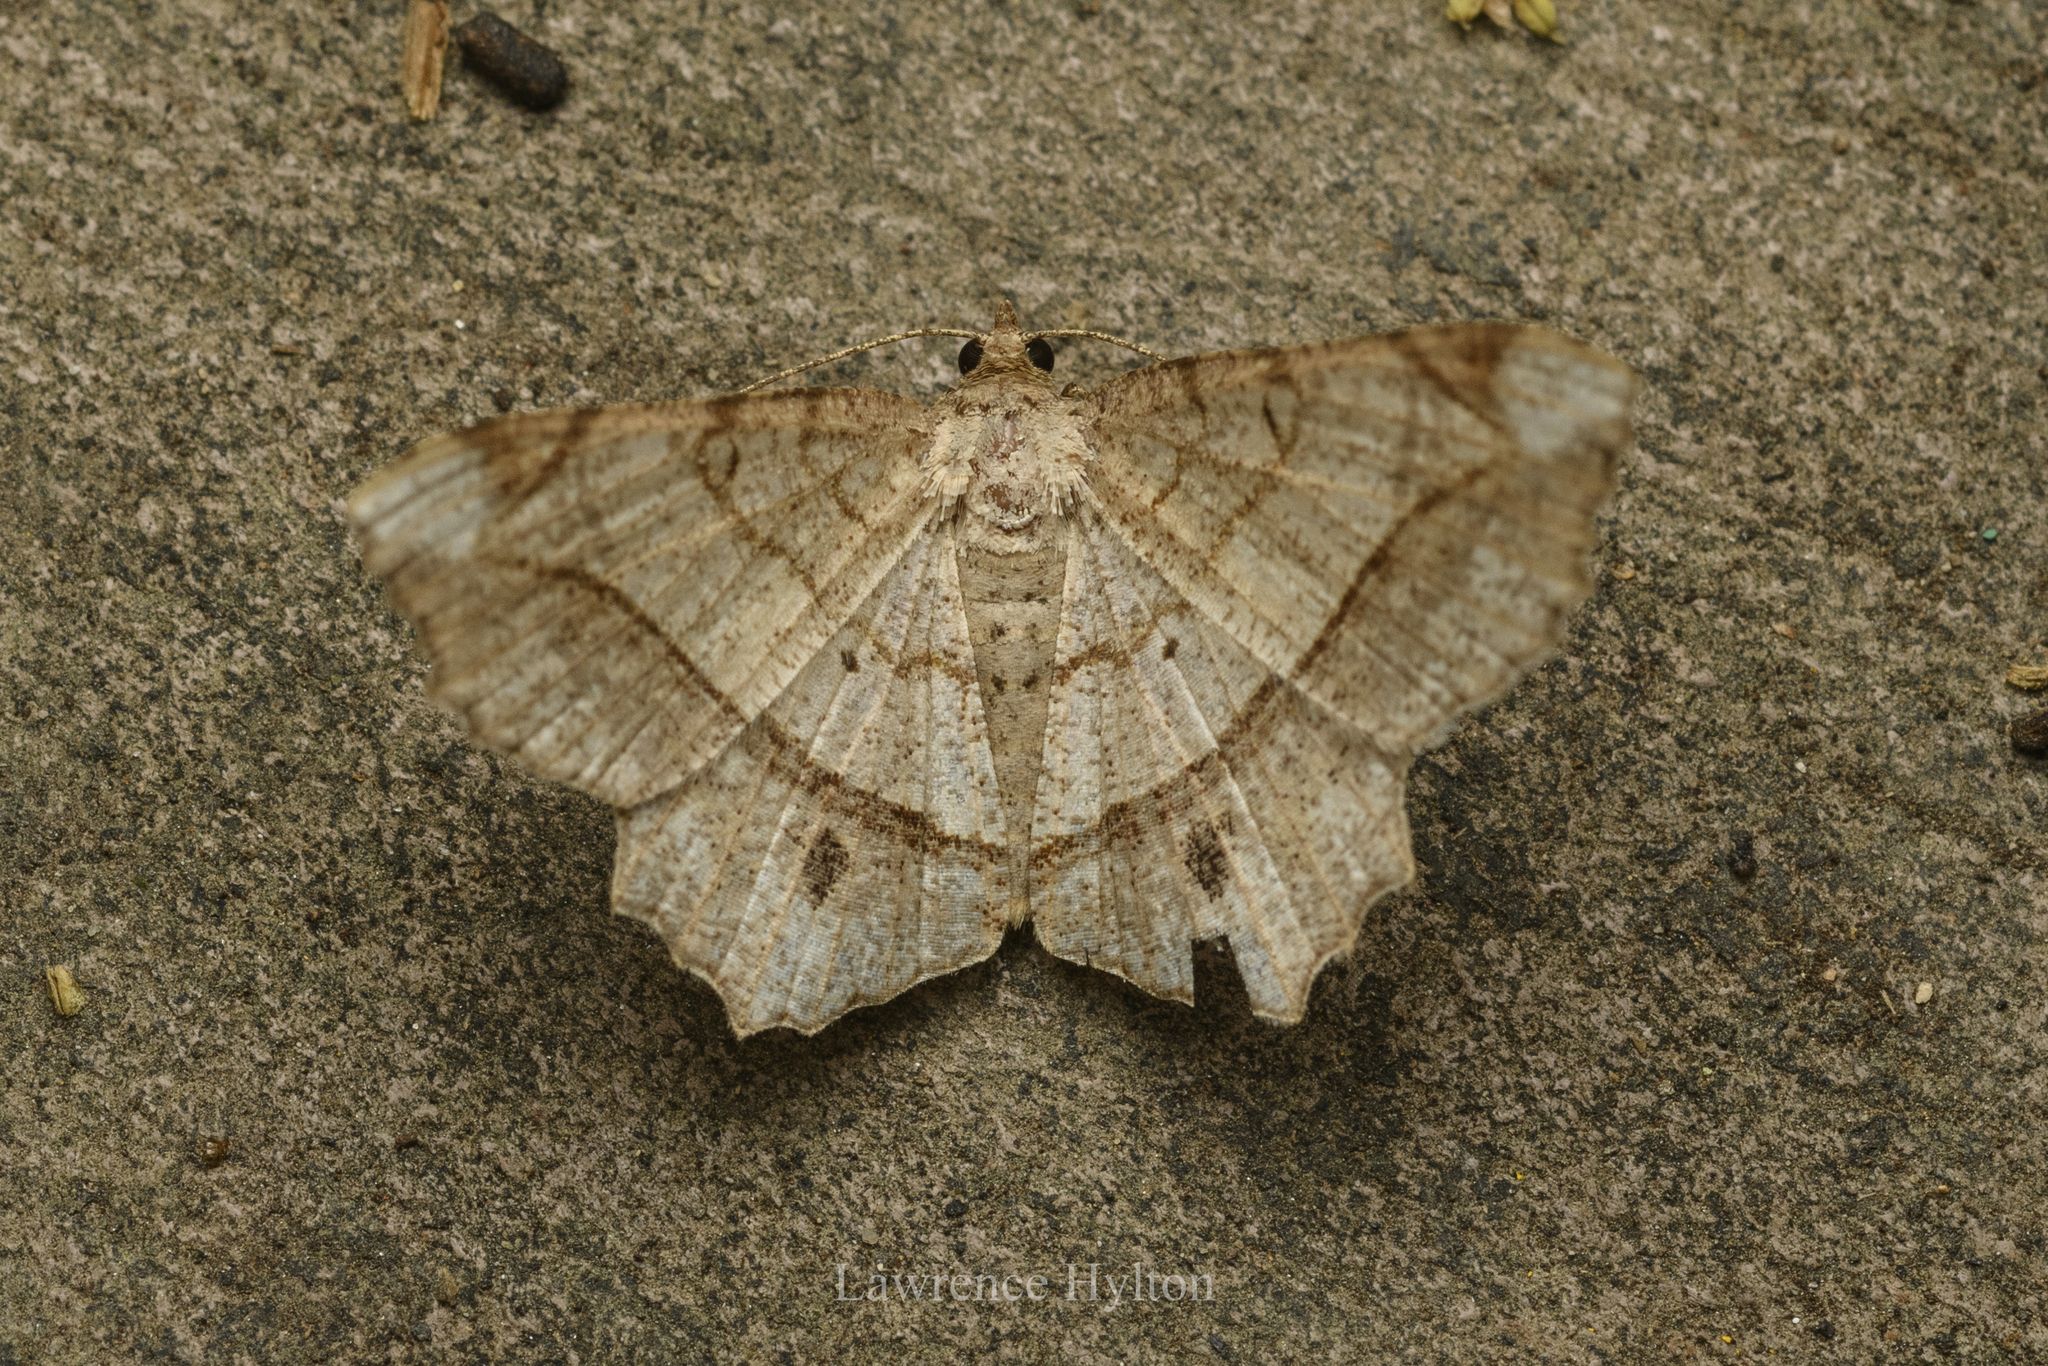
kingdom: Animalia
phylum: Arthropoda
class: Insecta
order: Lepidoptera
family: Geometridae
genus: Chiasmia
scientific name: Chiasmia monticolaria
